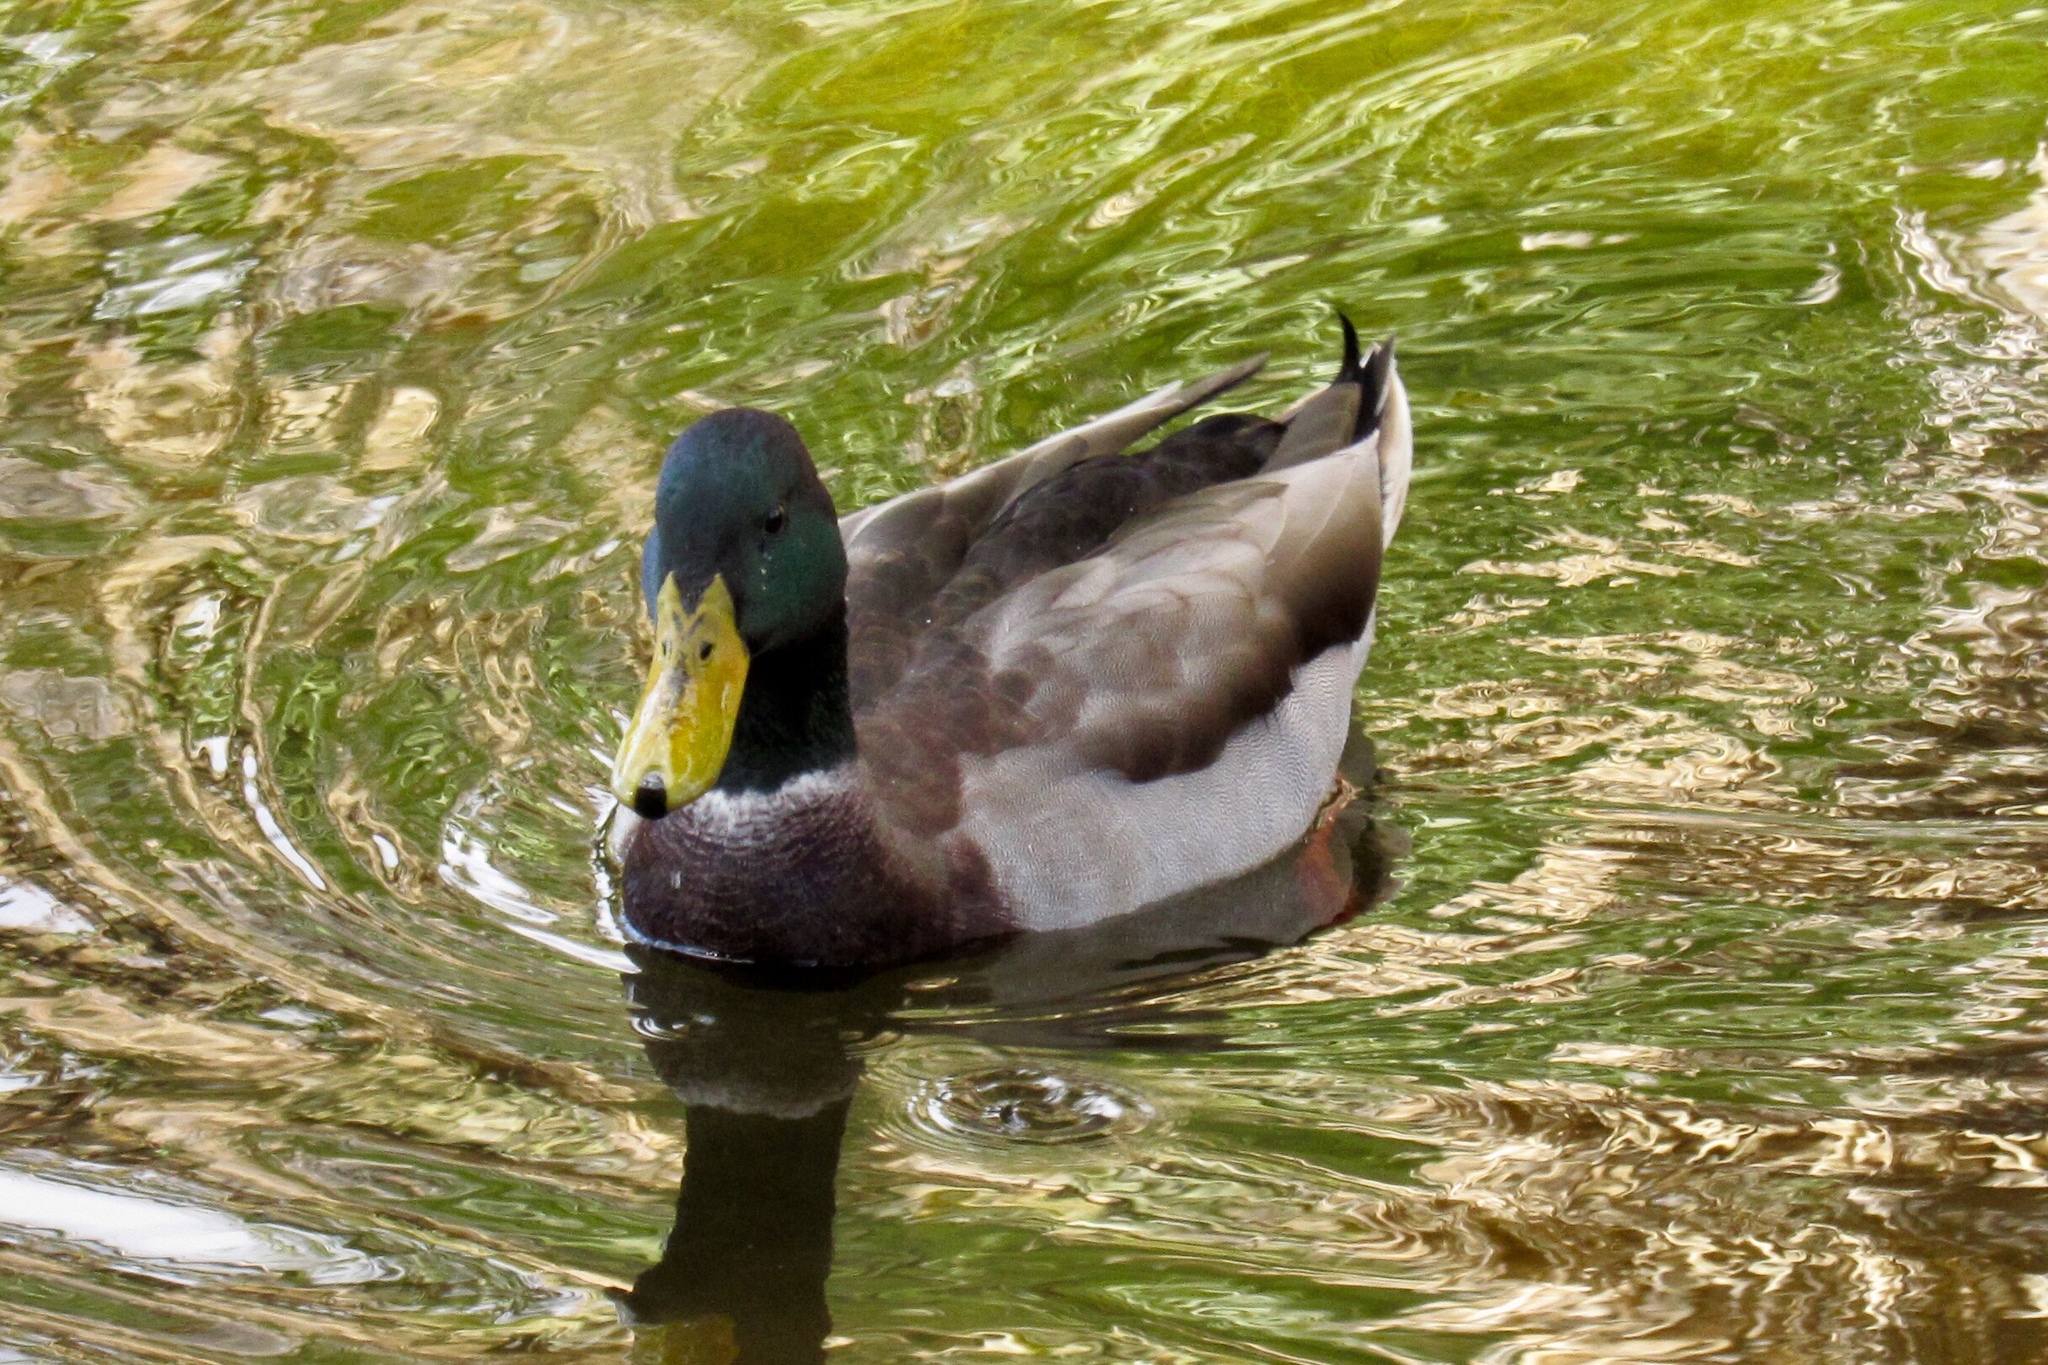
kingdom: Animalia
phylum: Chordata
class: Aves
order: Anseriformes
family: Anatidae
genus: Anas
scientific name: Anas platyrhynchos
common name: Mallard
